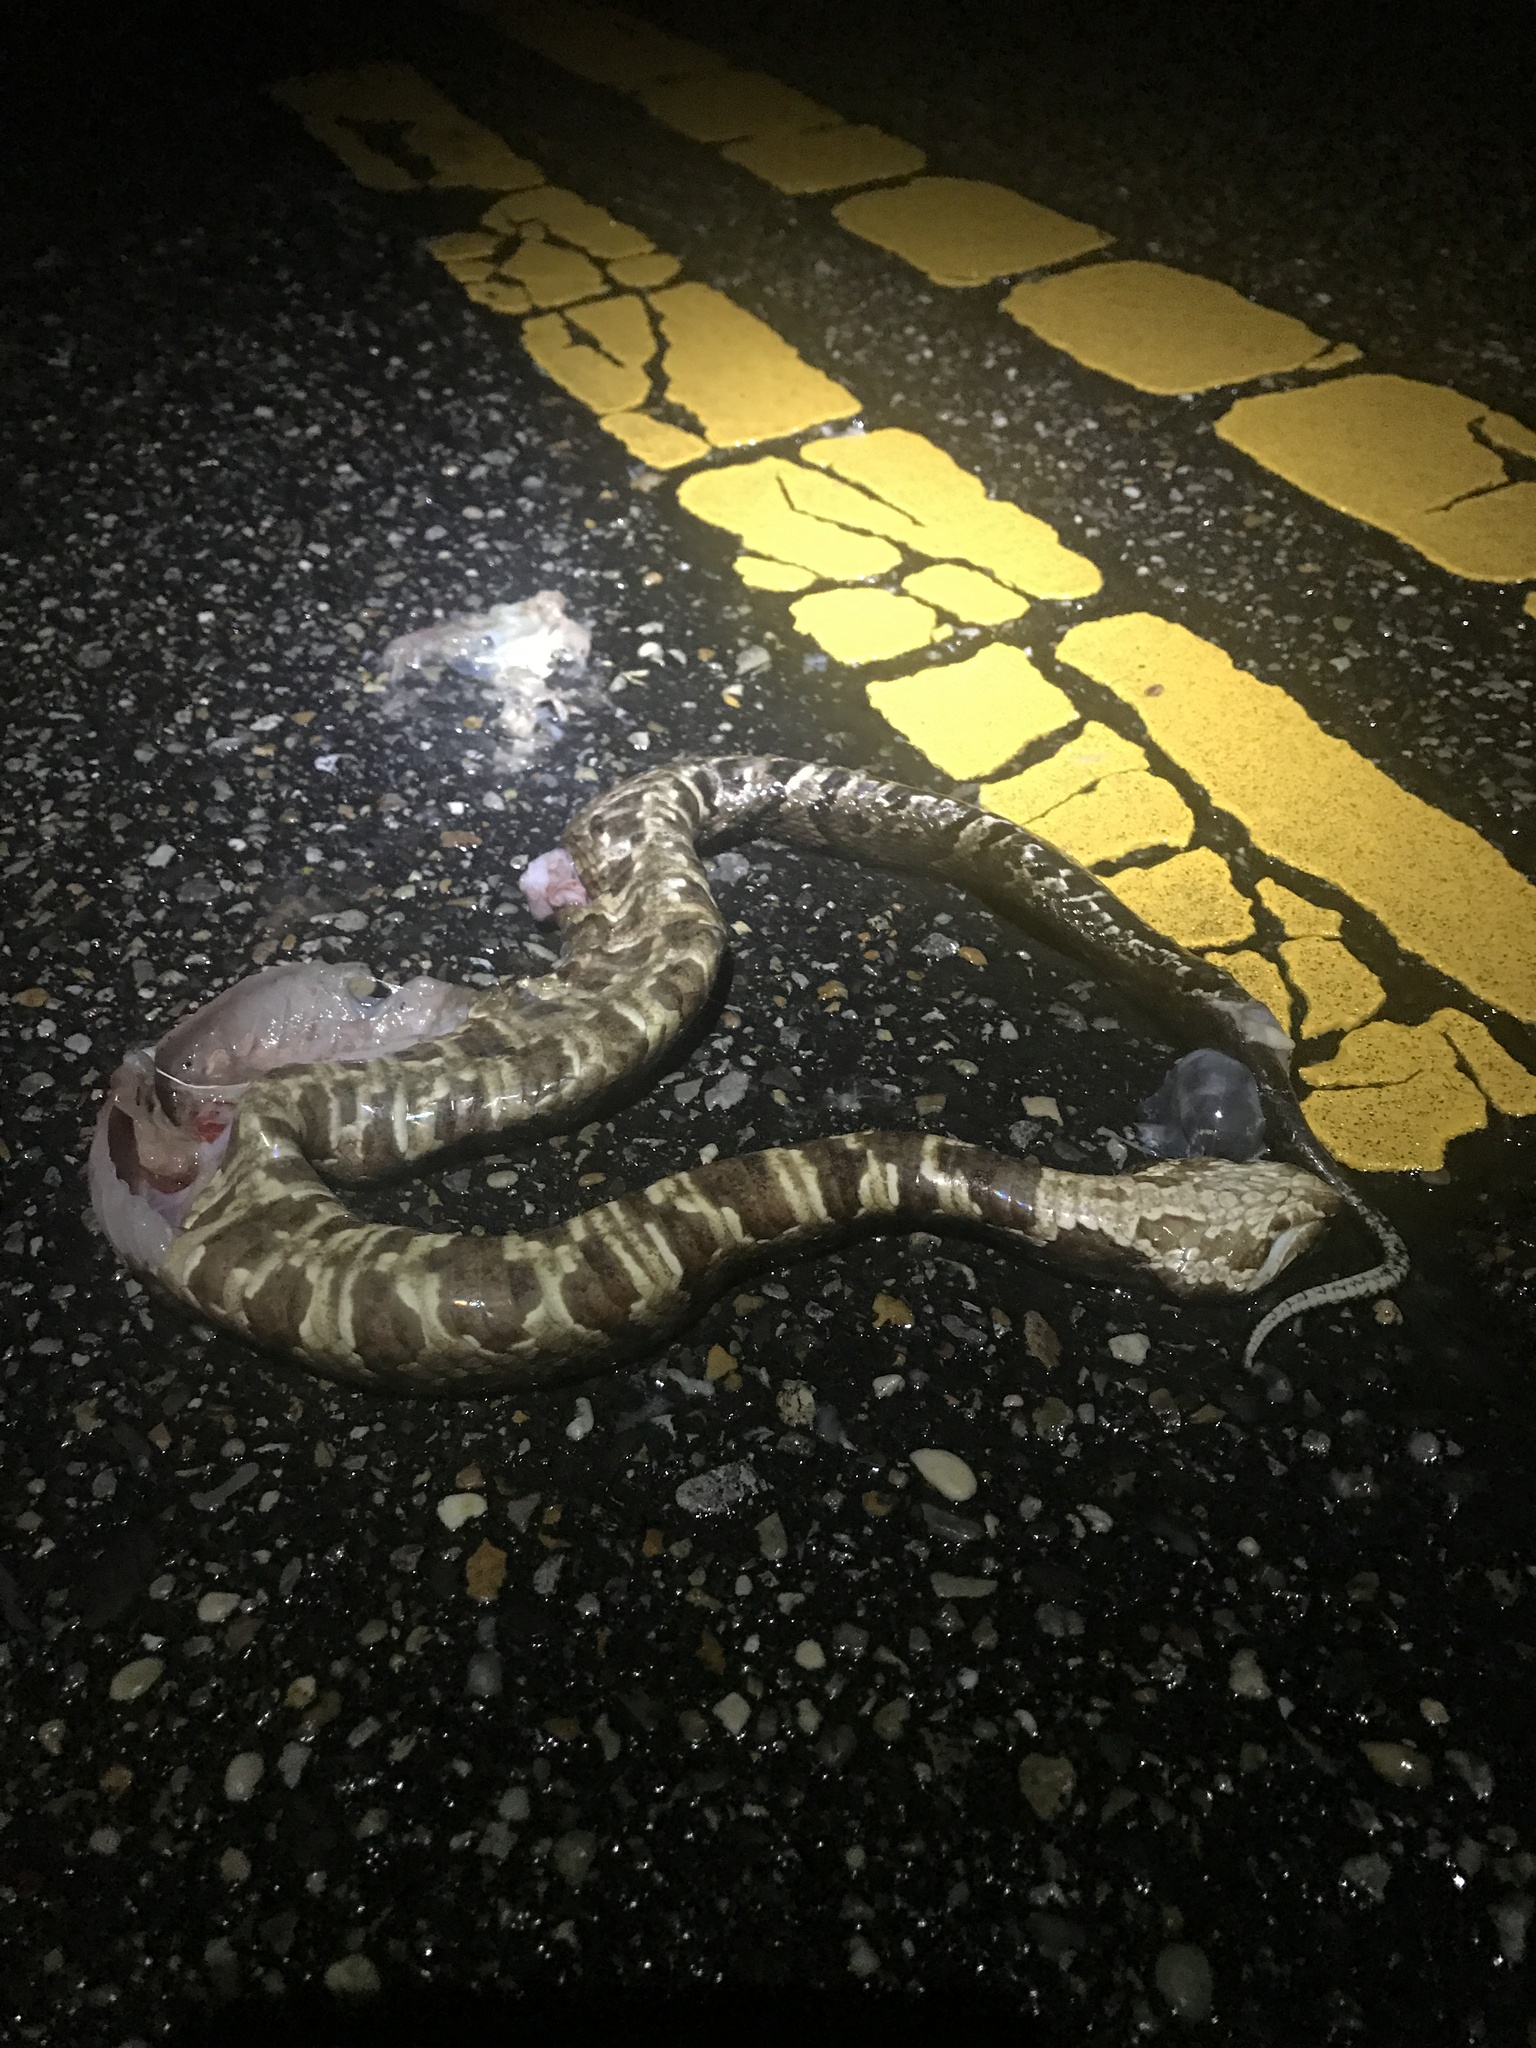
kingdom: Animalia
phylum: Chordata
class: Squamata
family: Viperidae
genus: Agkistrodon
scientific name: Agkistrodon piscivorus
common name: Cottonmouth
